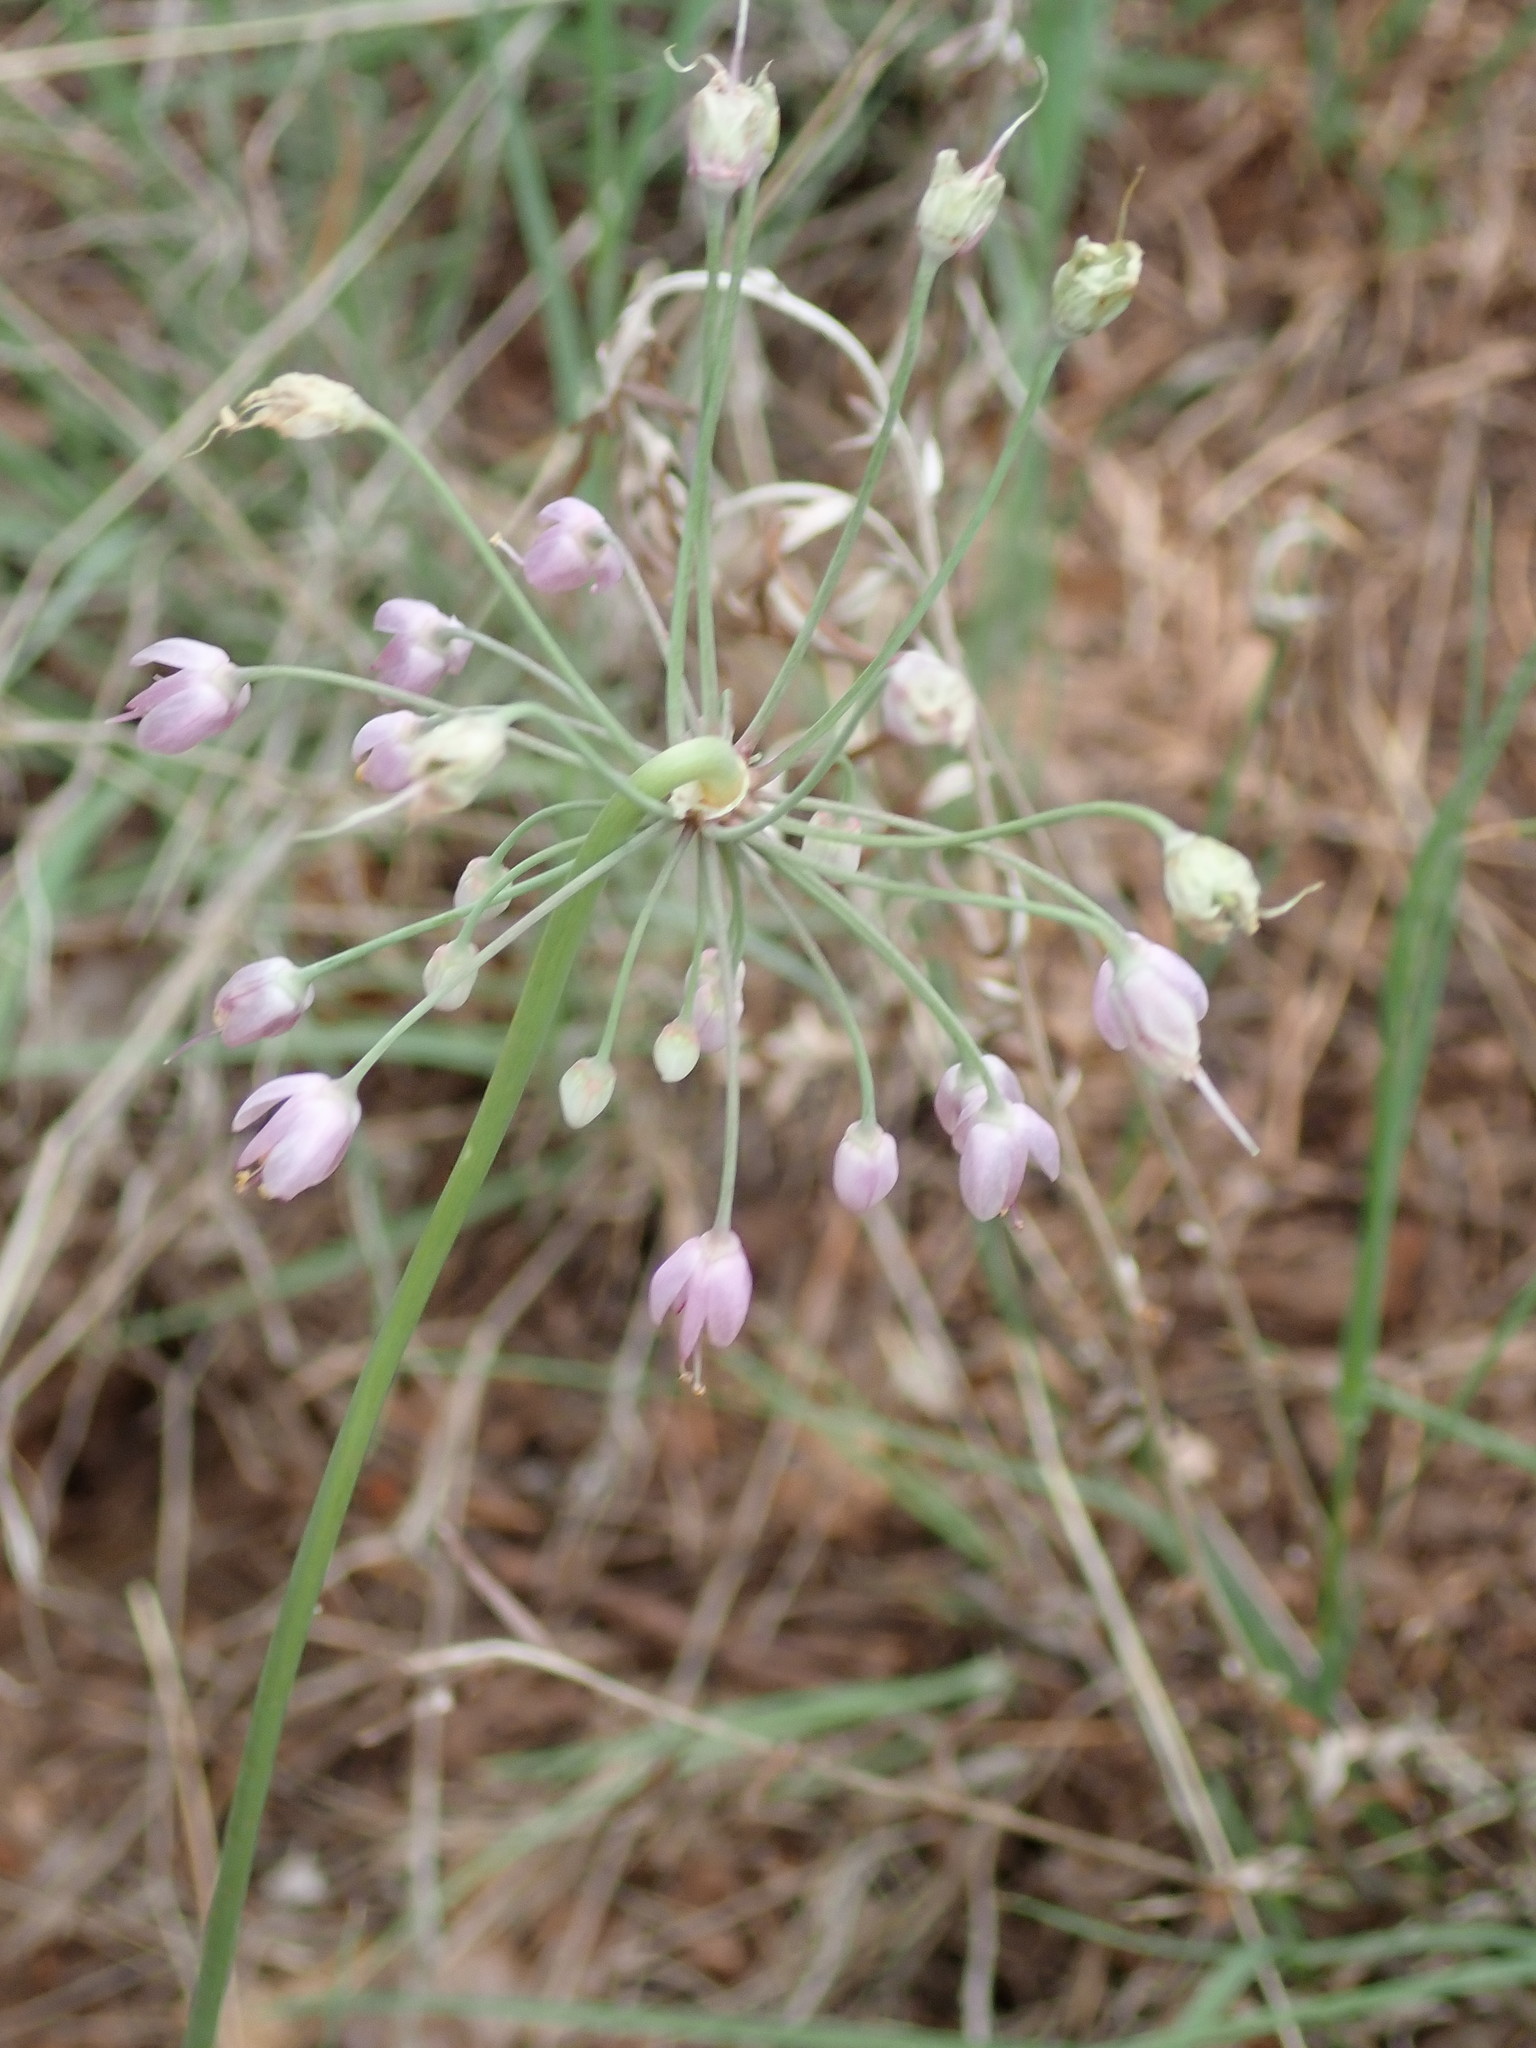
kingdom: Plantae
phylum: Tracheophyta
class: Liliopsida
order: Asparagales
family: Amaryllidaceae
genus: Allium
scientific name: Allium cernuum
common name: Nodding onion
